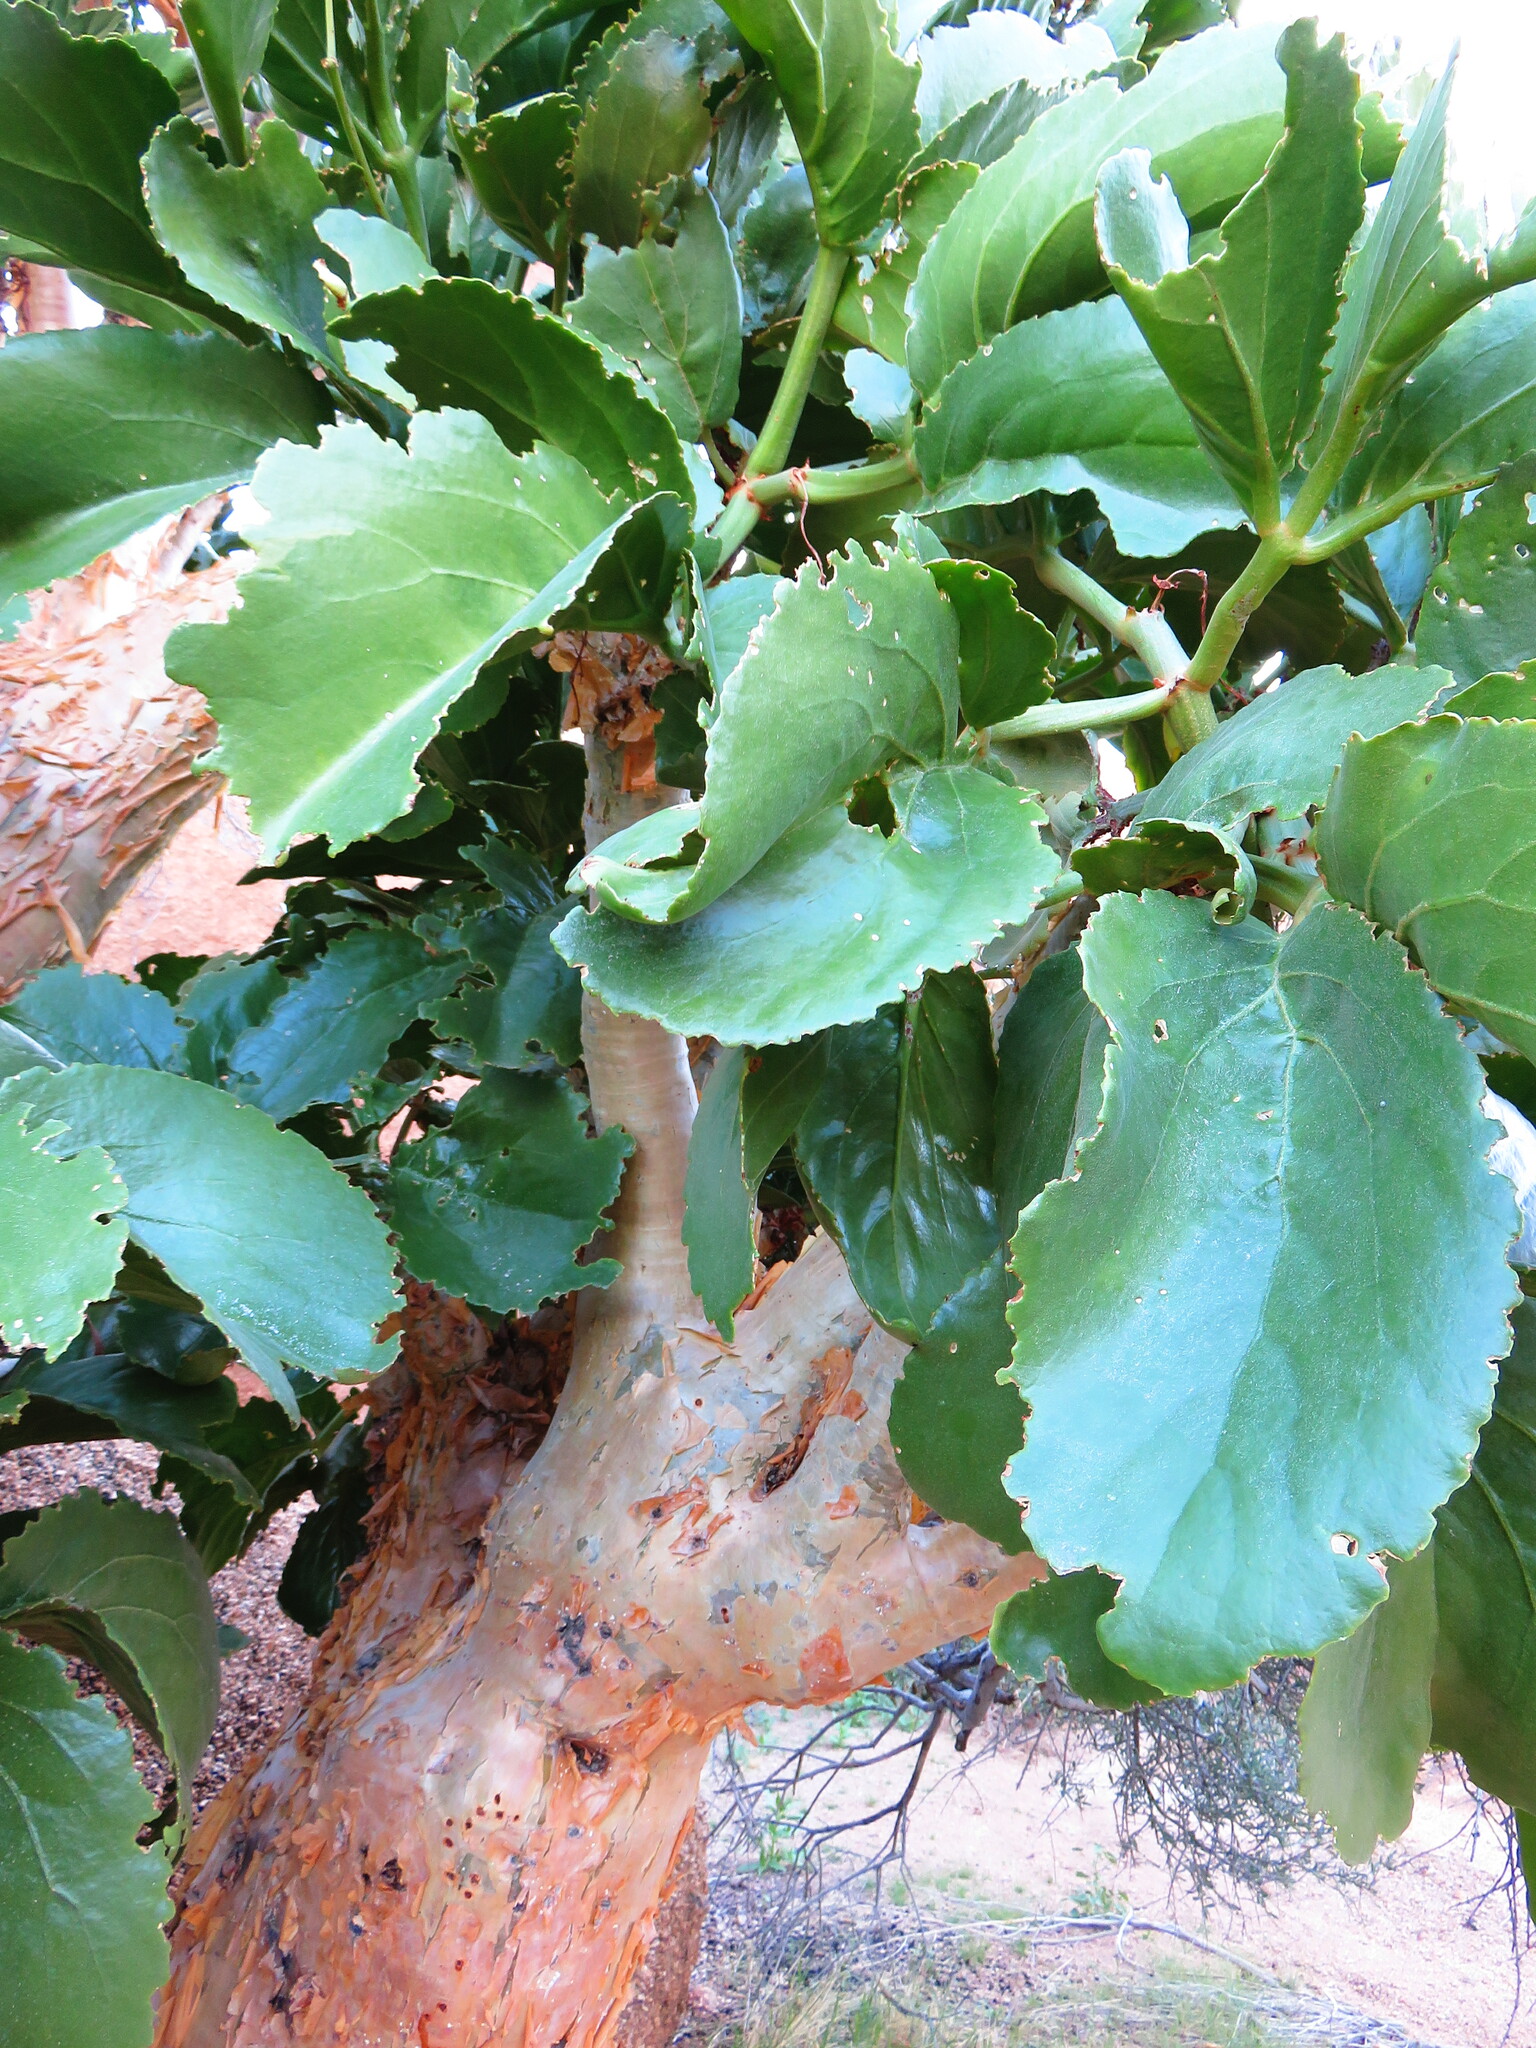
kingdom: Plantae
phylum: Tracheophyta
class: Magnoliopsida
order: Vitales
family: Vitaceae
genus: Cyphostemma
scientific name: Cyphostemma currorii
